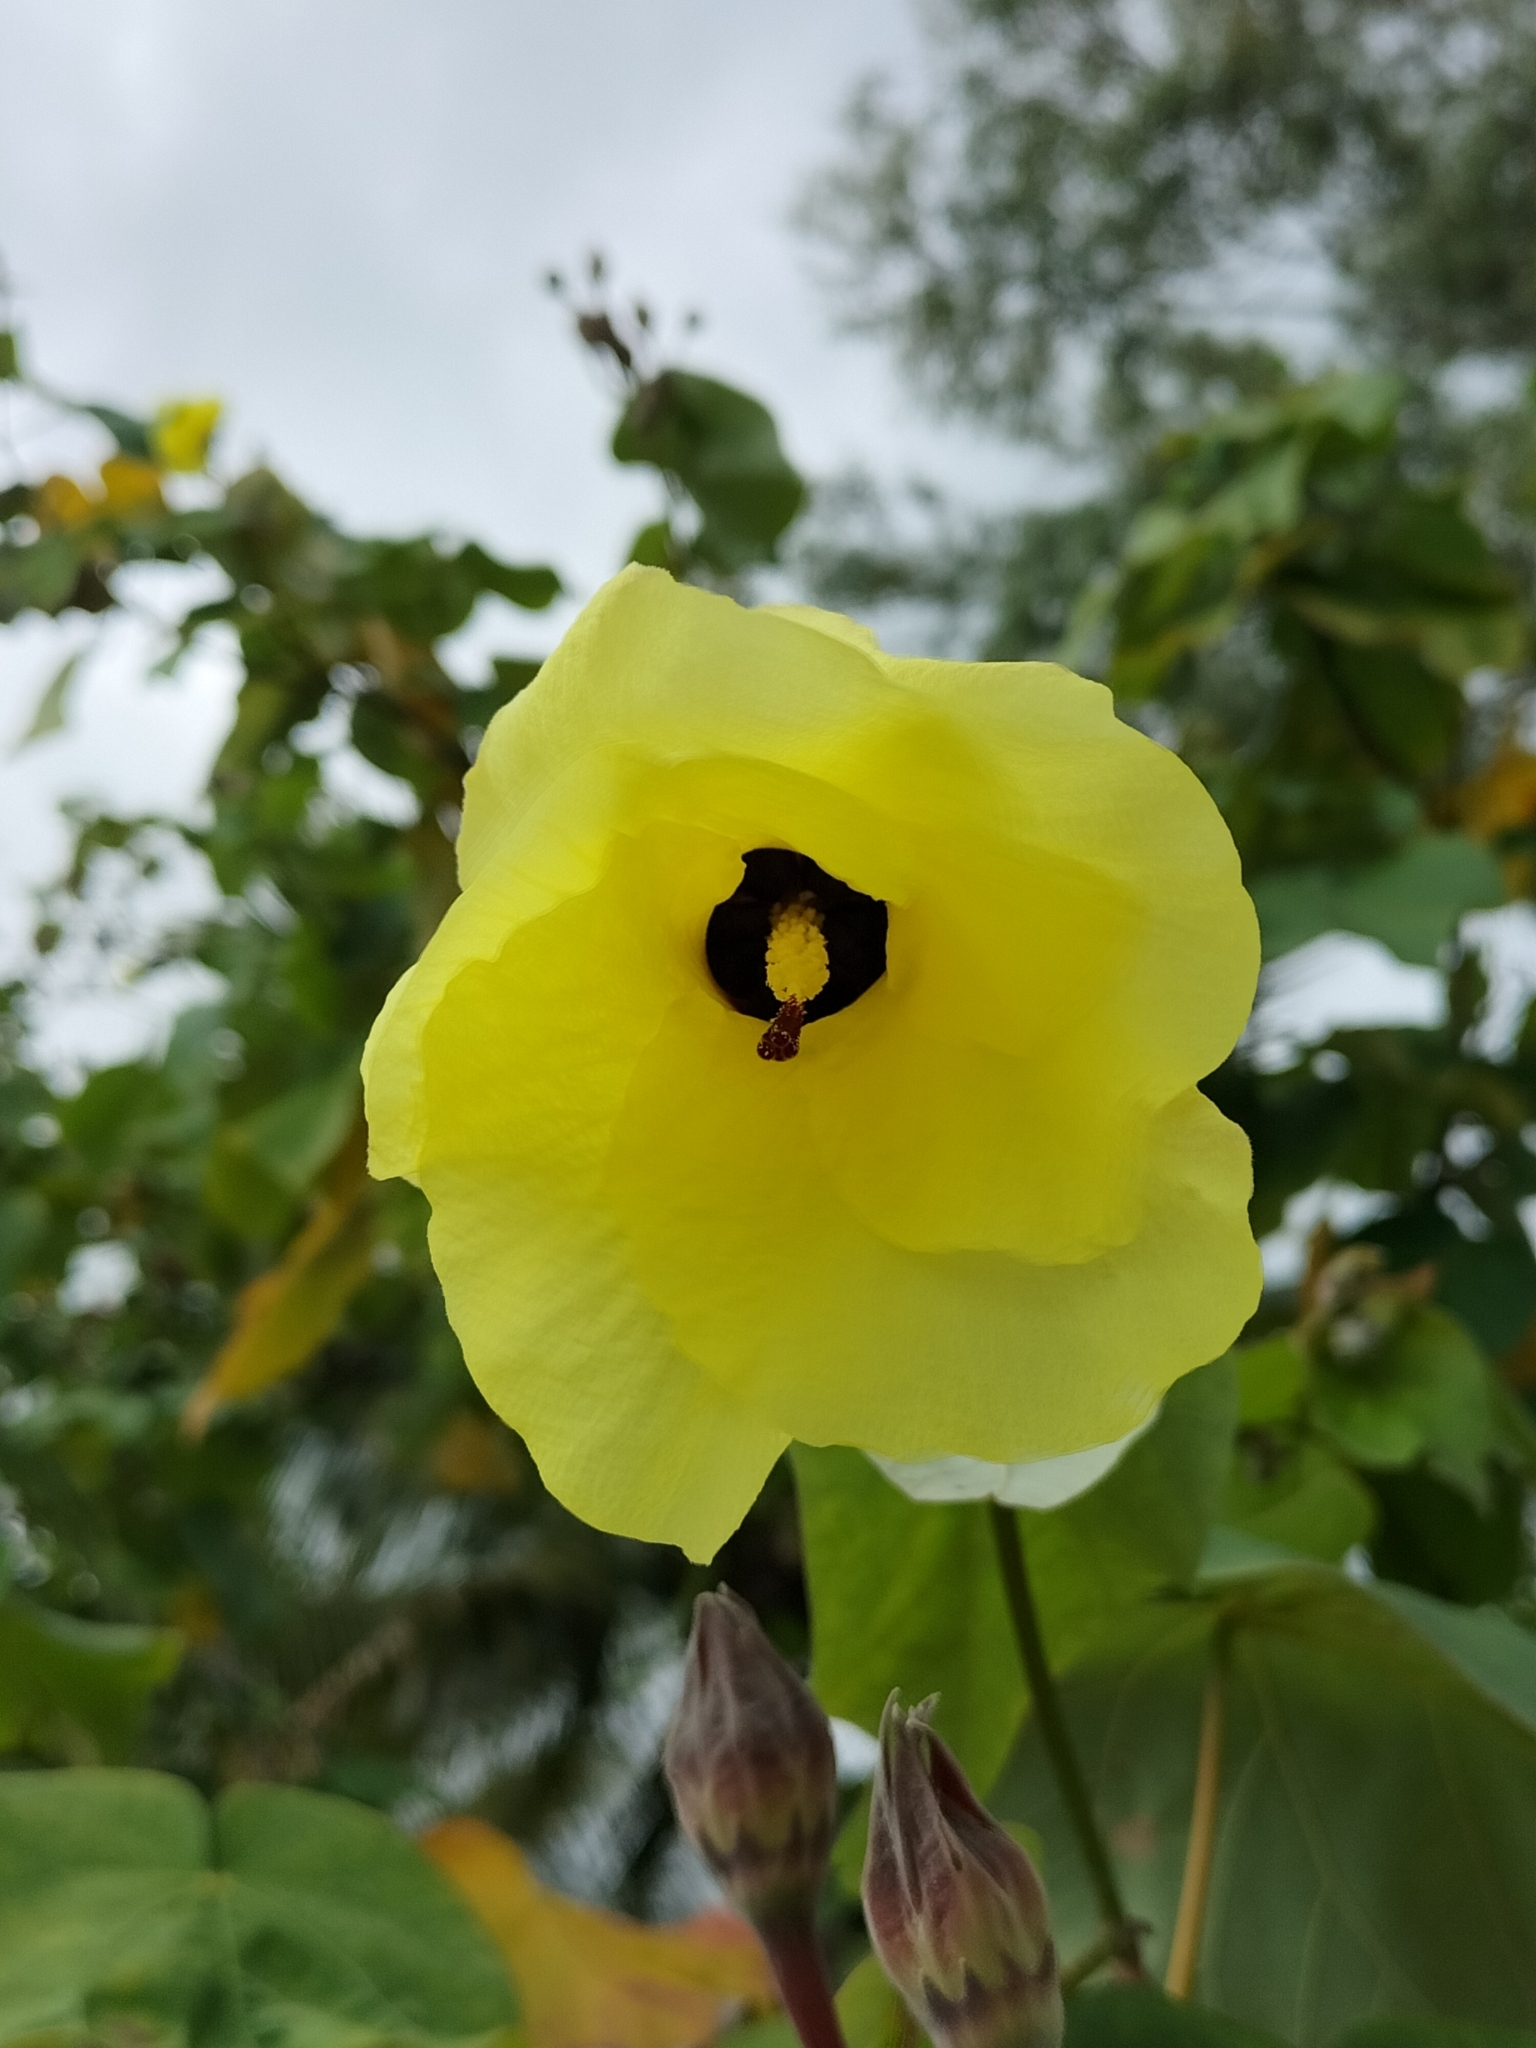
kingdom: Plantae
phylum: Tracheophyta
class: Magnoliopsida
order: Malvales
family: Malvaceae
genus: Talipariti
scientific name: Talipariti tiliaceum
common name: Sea hibiscus
